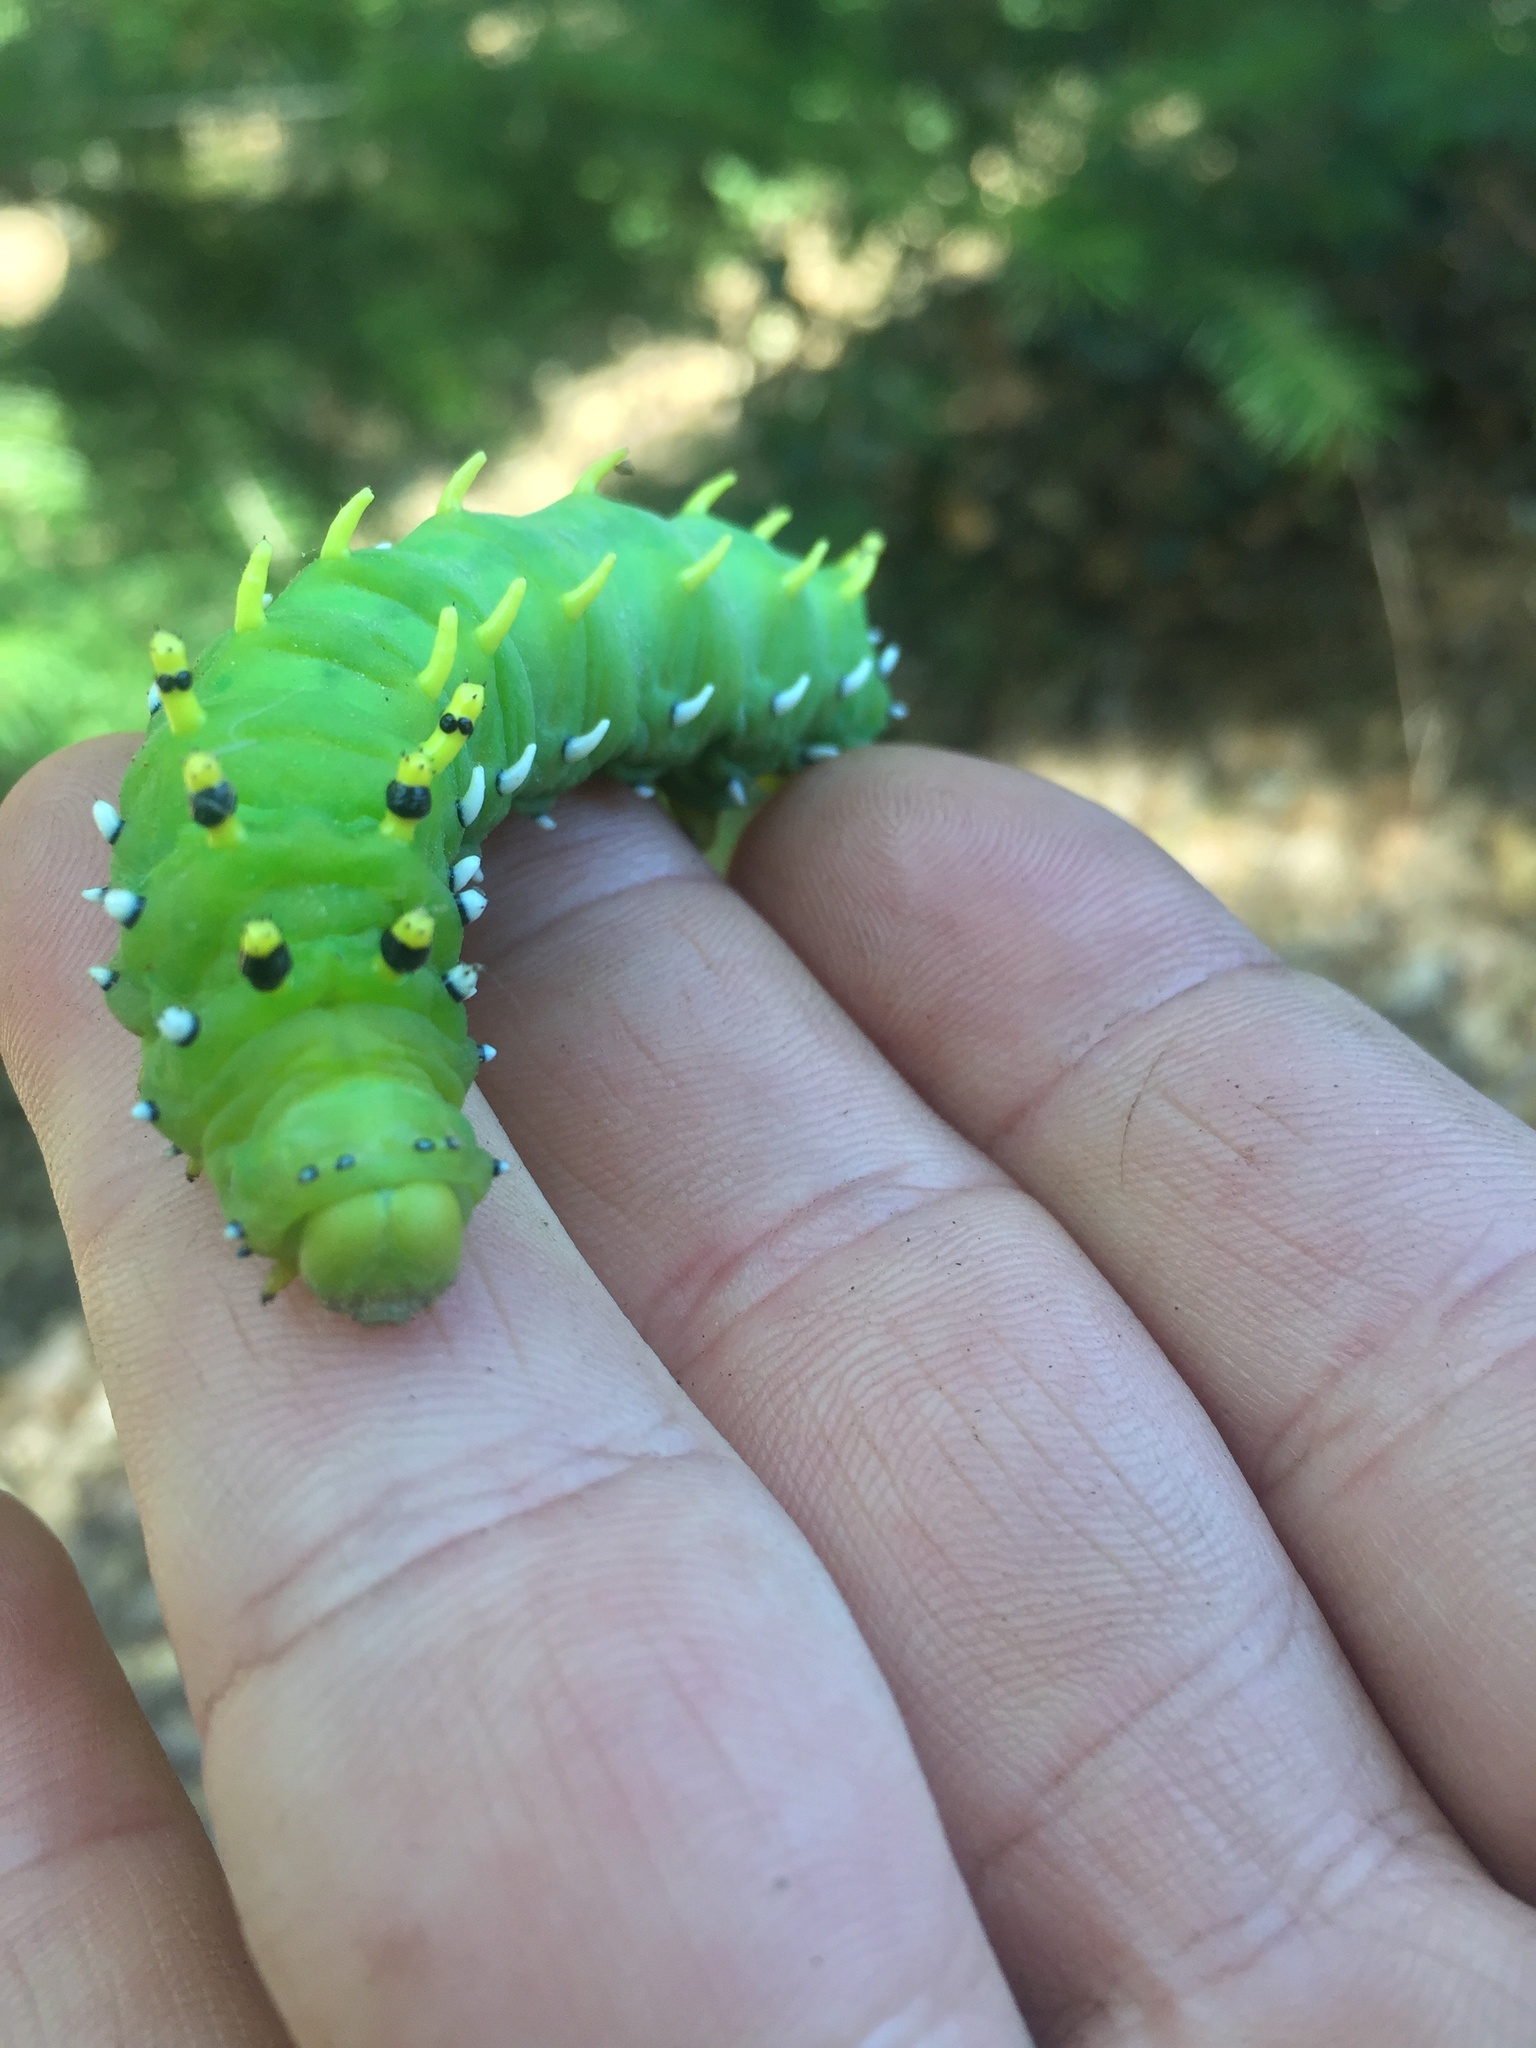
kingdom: Animalia
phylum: Arthropoda
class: Insecta
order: Lepidoptera
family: Saturniidae
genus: Hyalophora
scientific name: Hyalophora euryalus
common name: Ceanothus silkmoth
